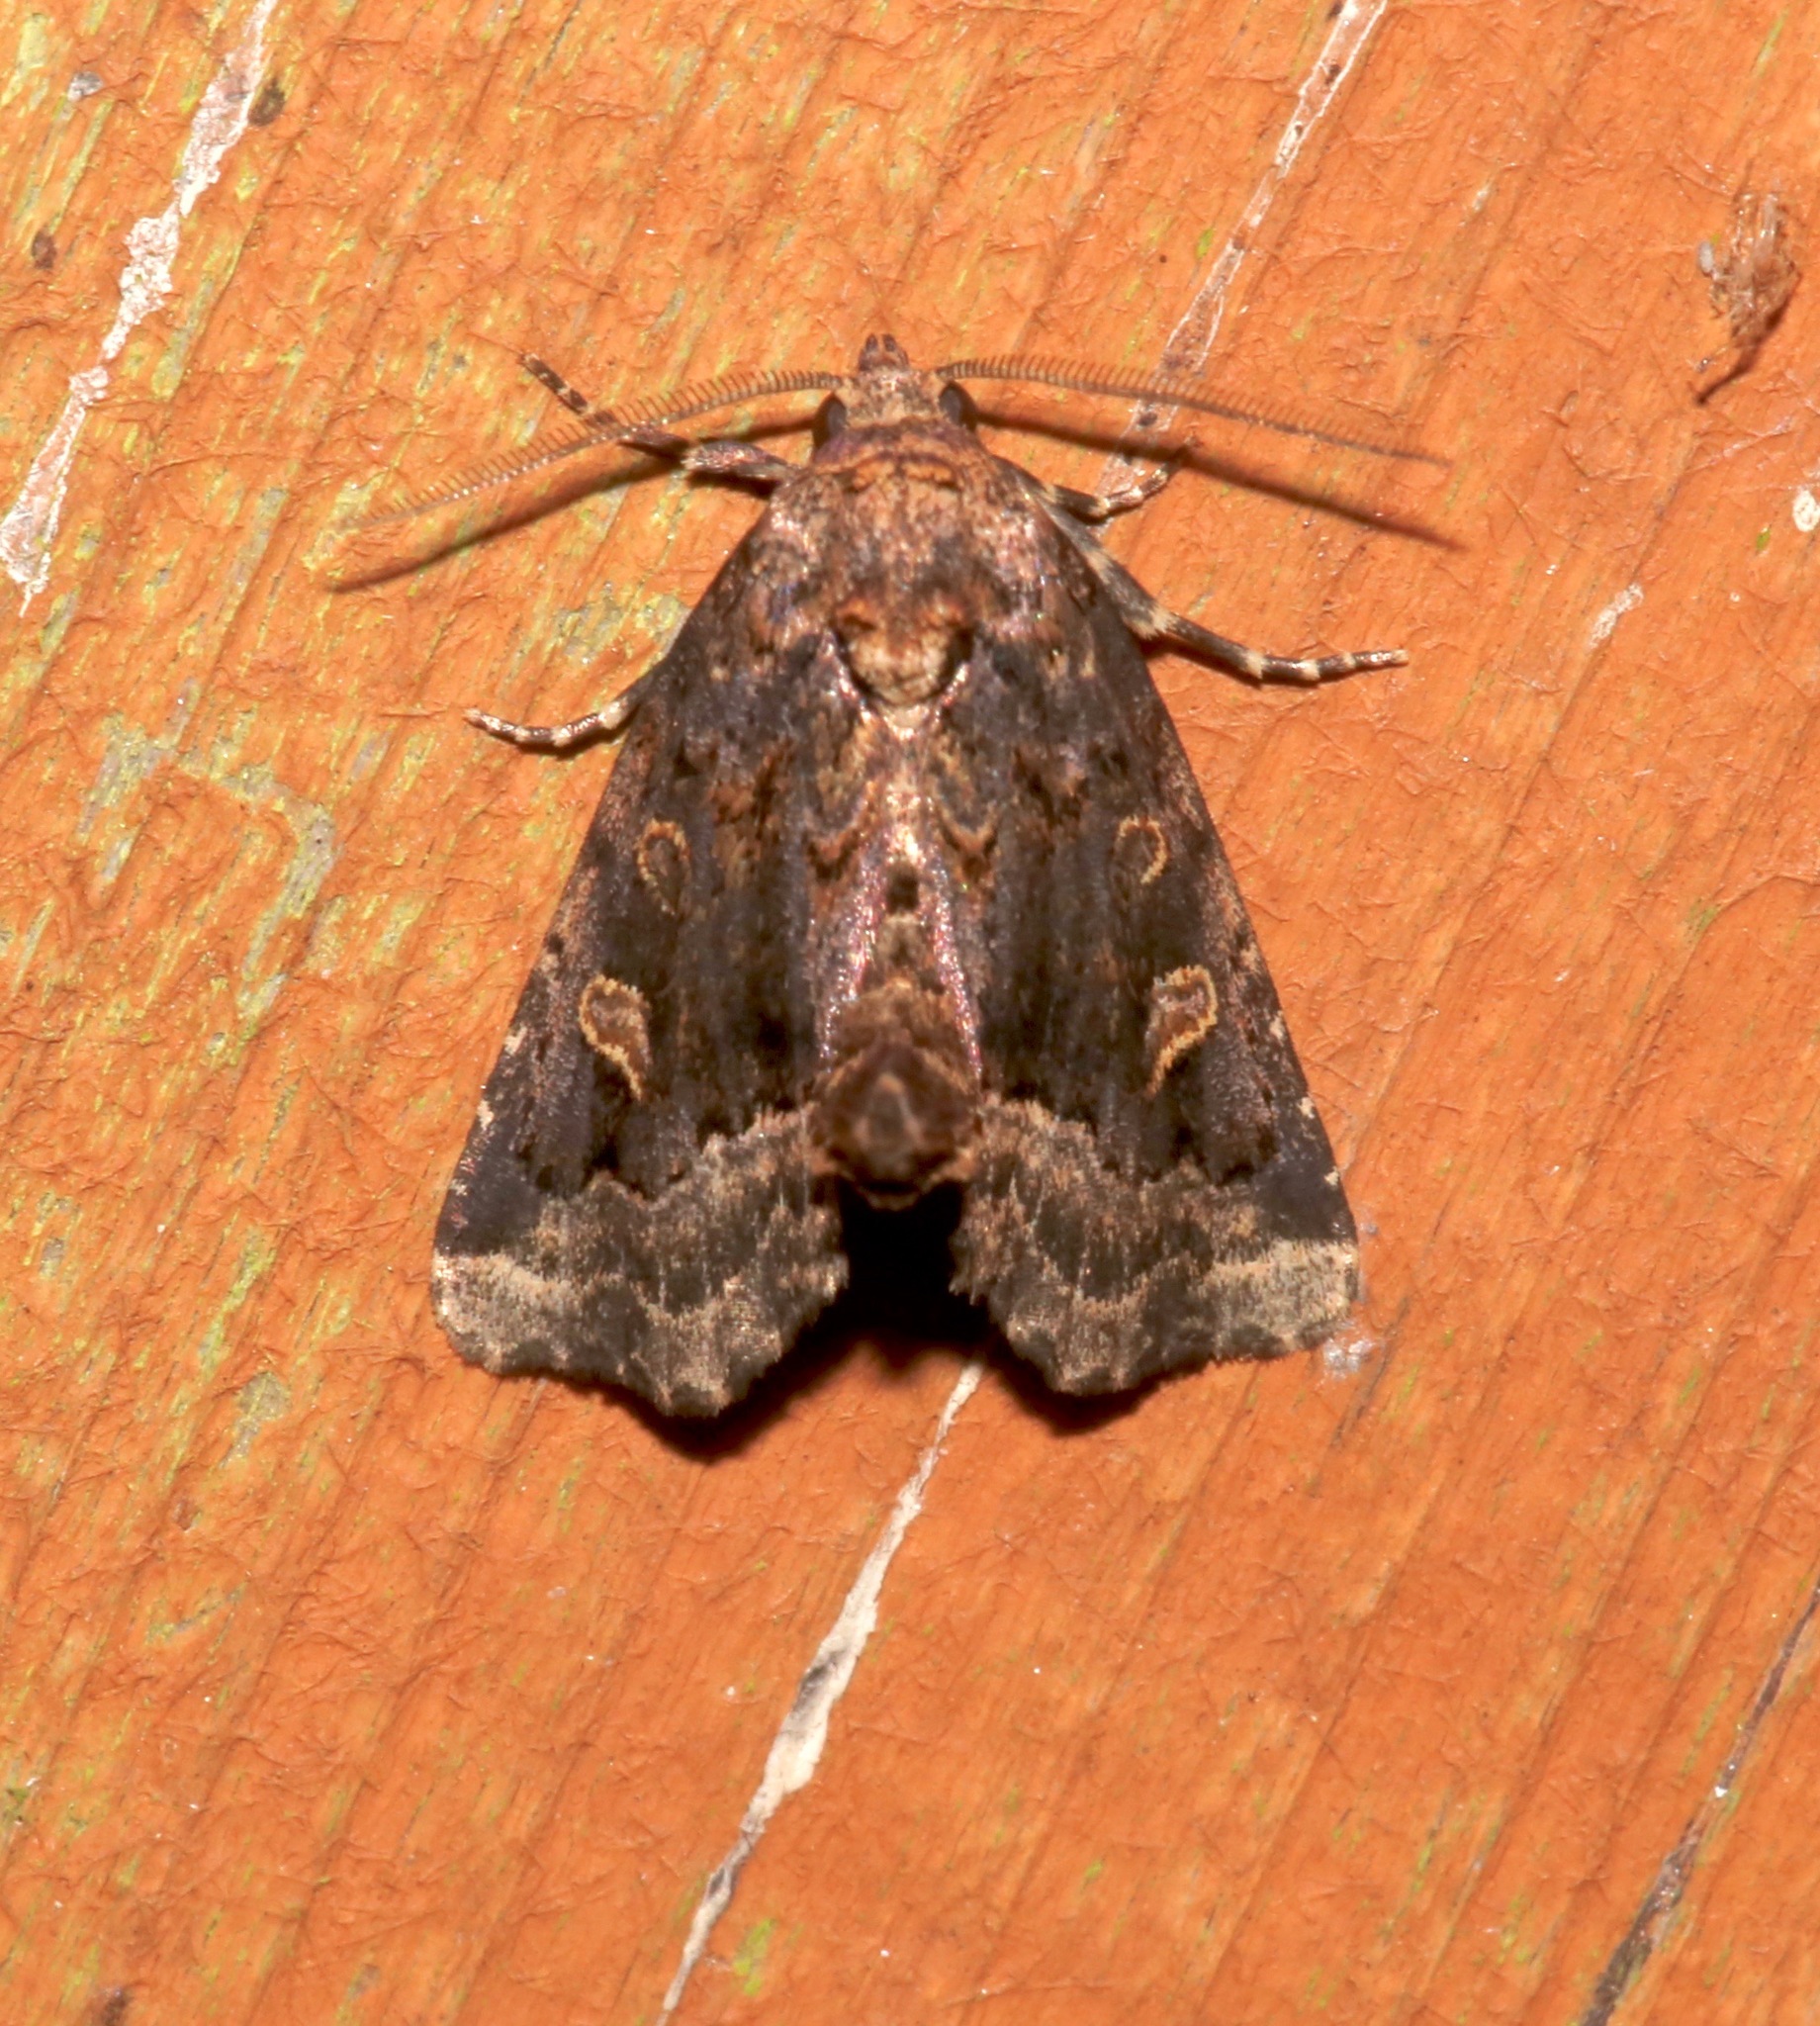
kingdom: Animalia
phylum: Arthropoda
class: Insecta
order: Lepidoptera
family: Noctuidae
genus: Homophoberia
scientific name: Homophoberia australis
